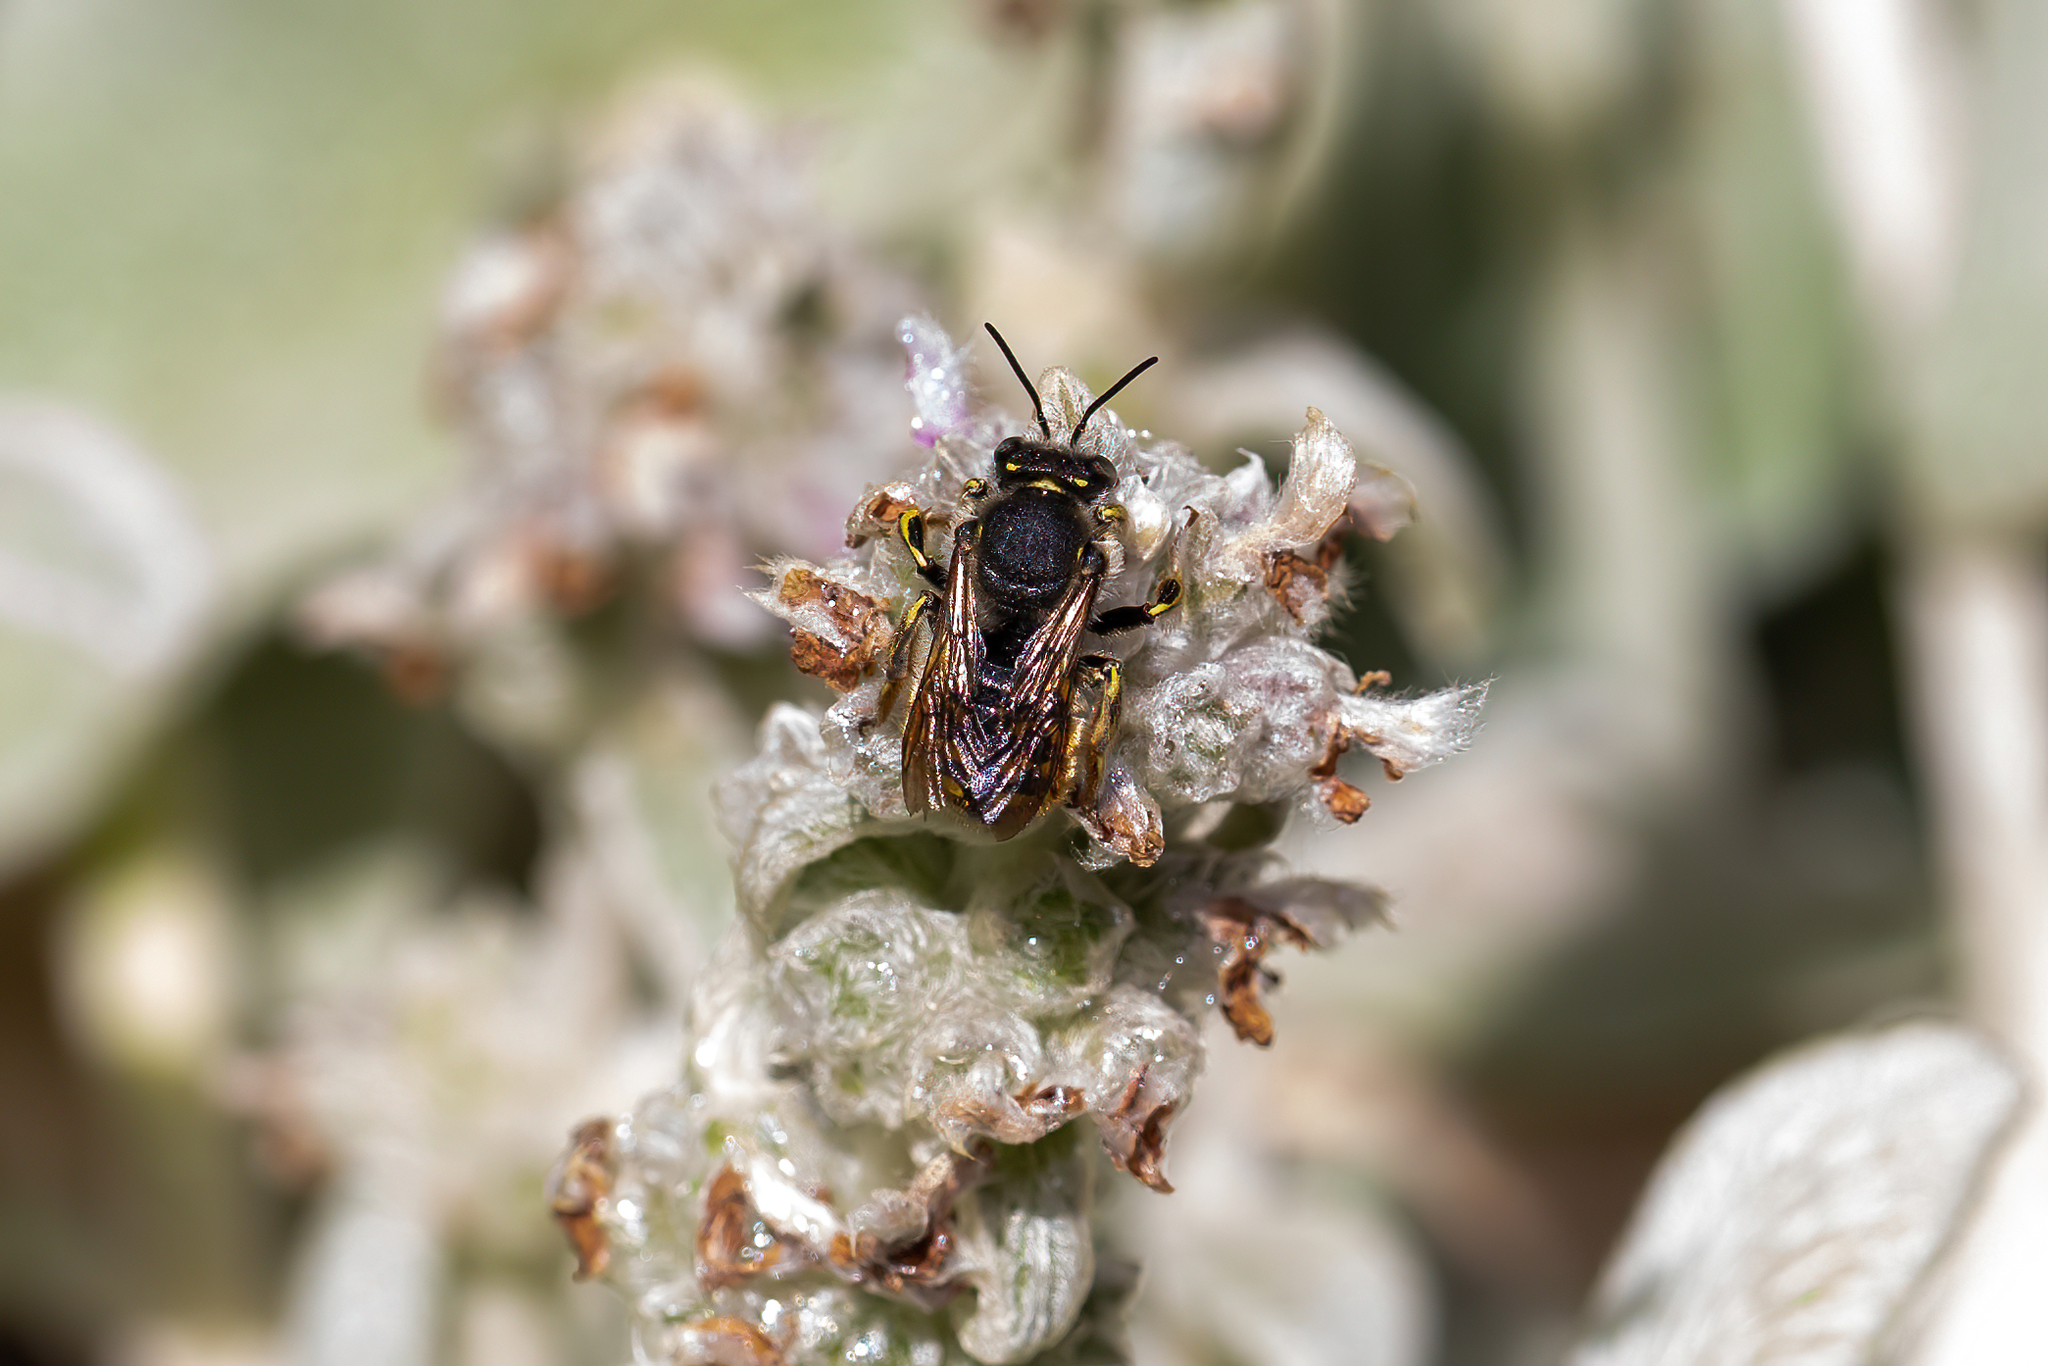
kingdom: Animalia
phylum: Arthropoda
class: Insecta
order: Hymenoptera
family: Megachilidae
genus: Anthidium
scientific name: Anthidium manicatum
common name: Wool carder bee
